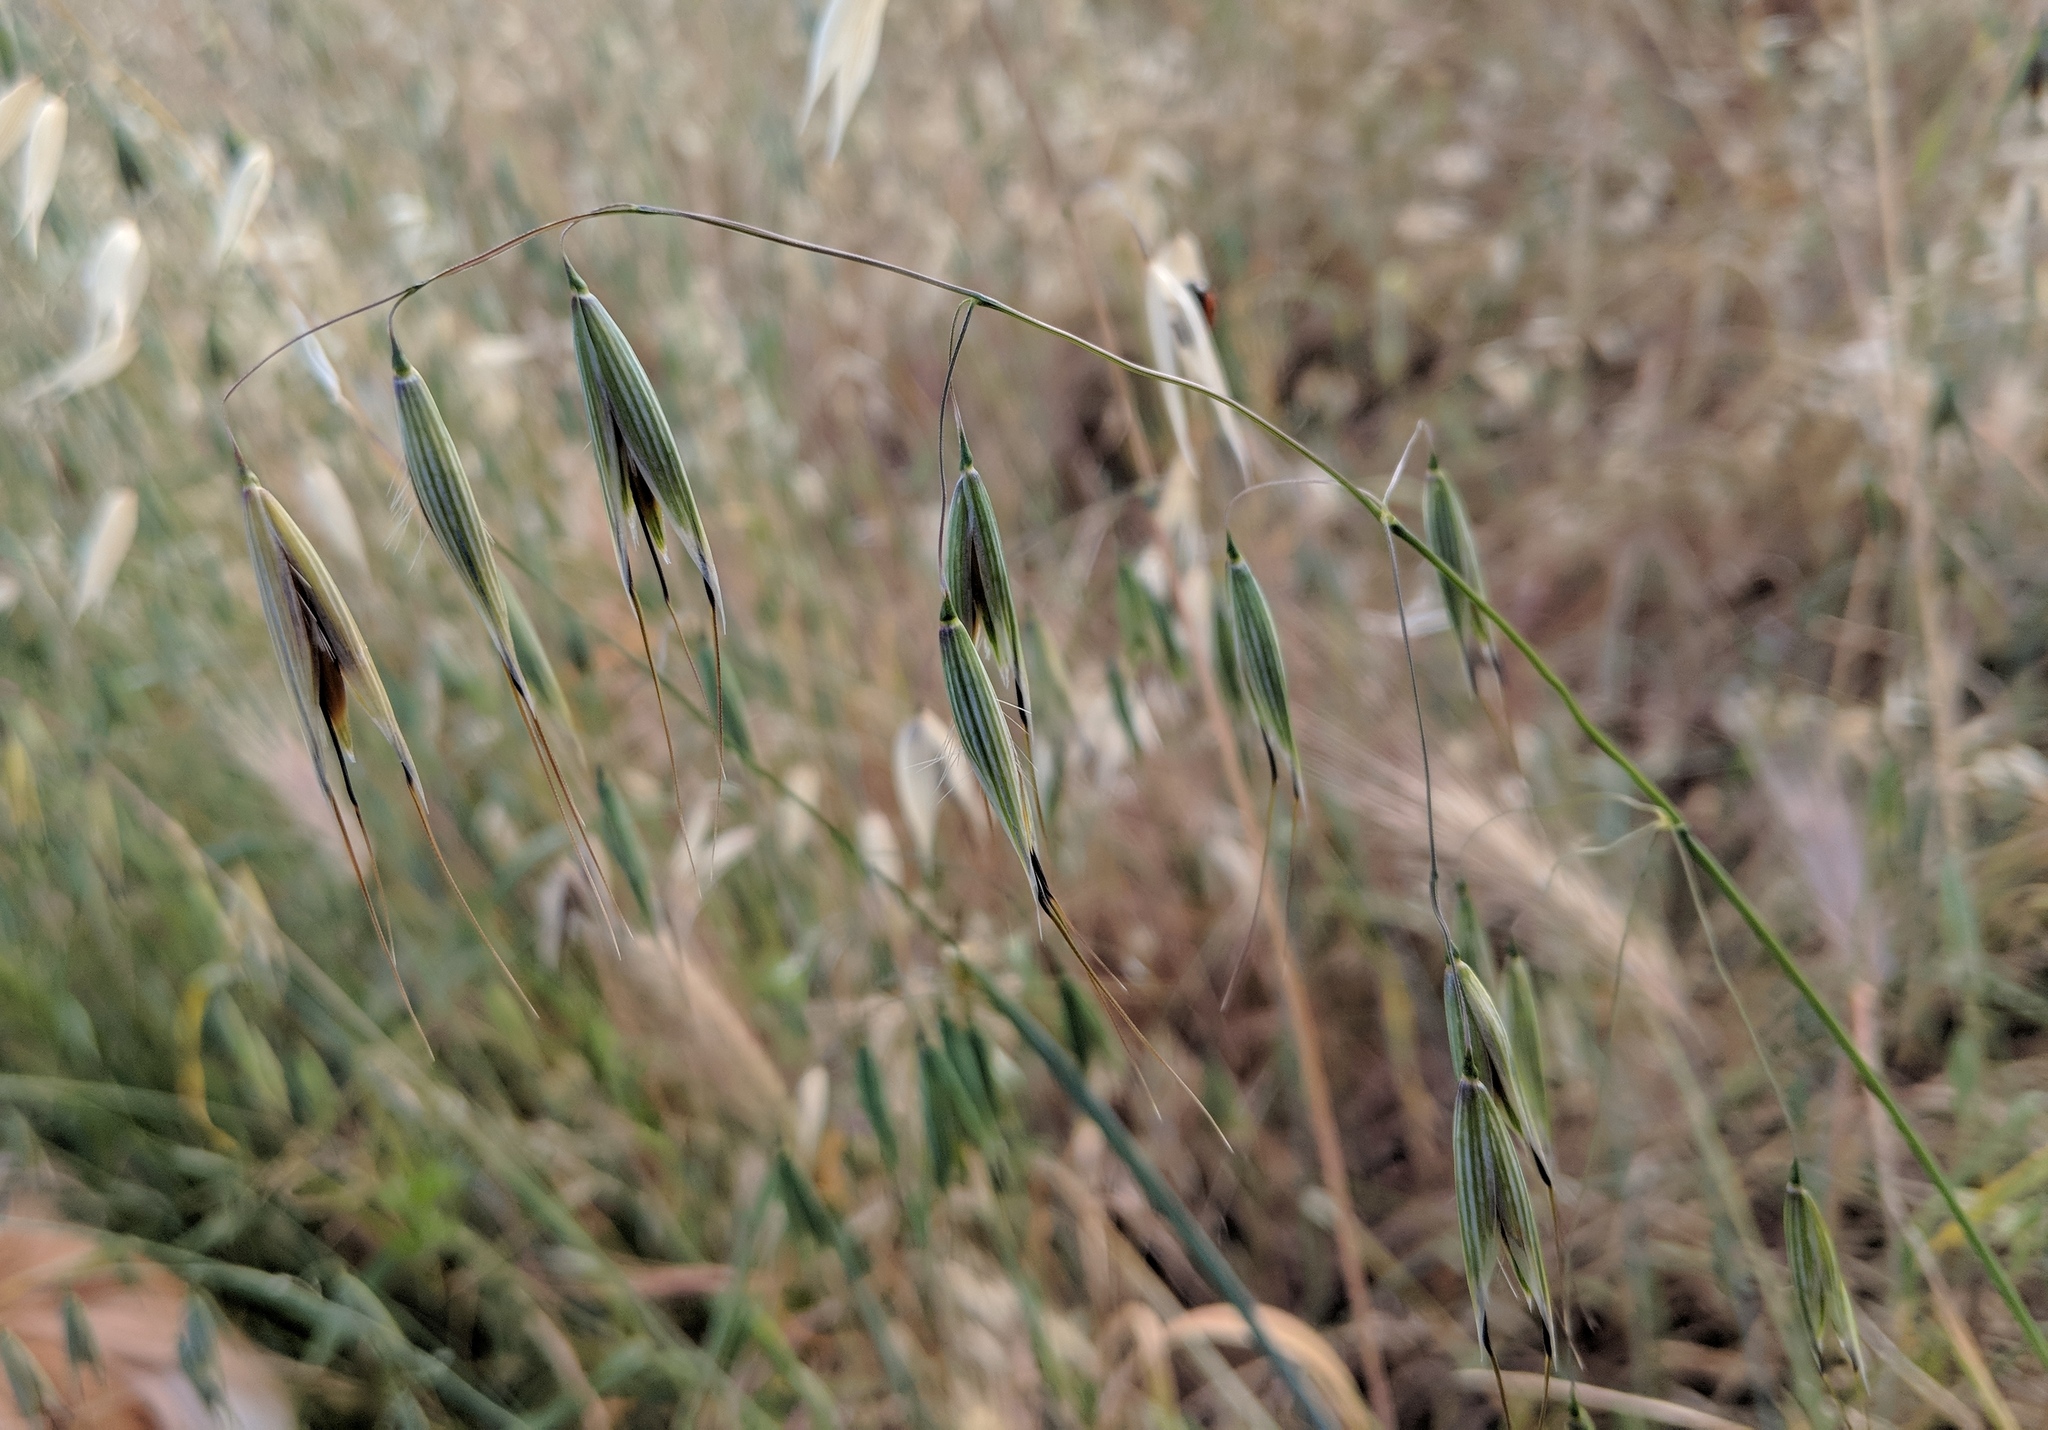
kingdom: Plantae
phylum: Tracheophyta
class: Liliopsida
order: Poales
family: Poaceae
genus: Avena
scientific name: Avena fatua
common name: Wild oat
